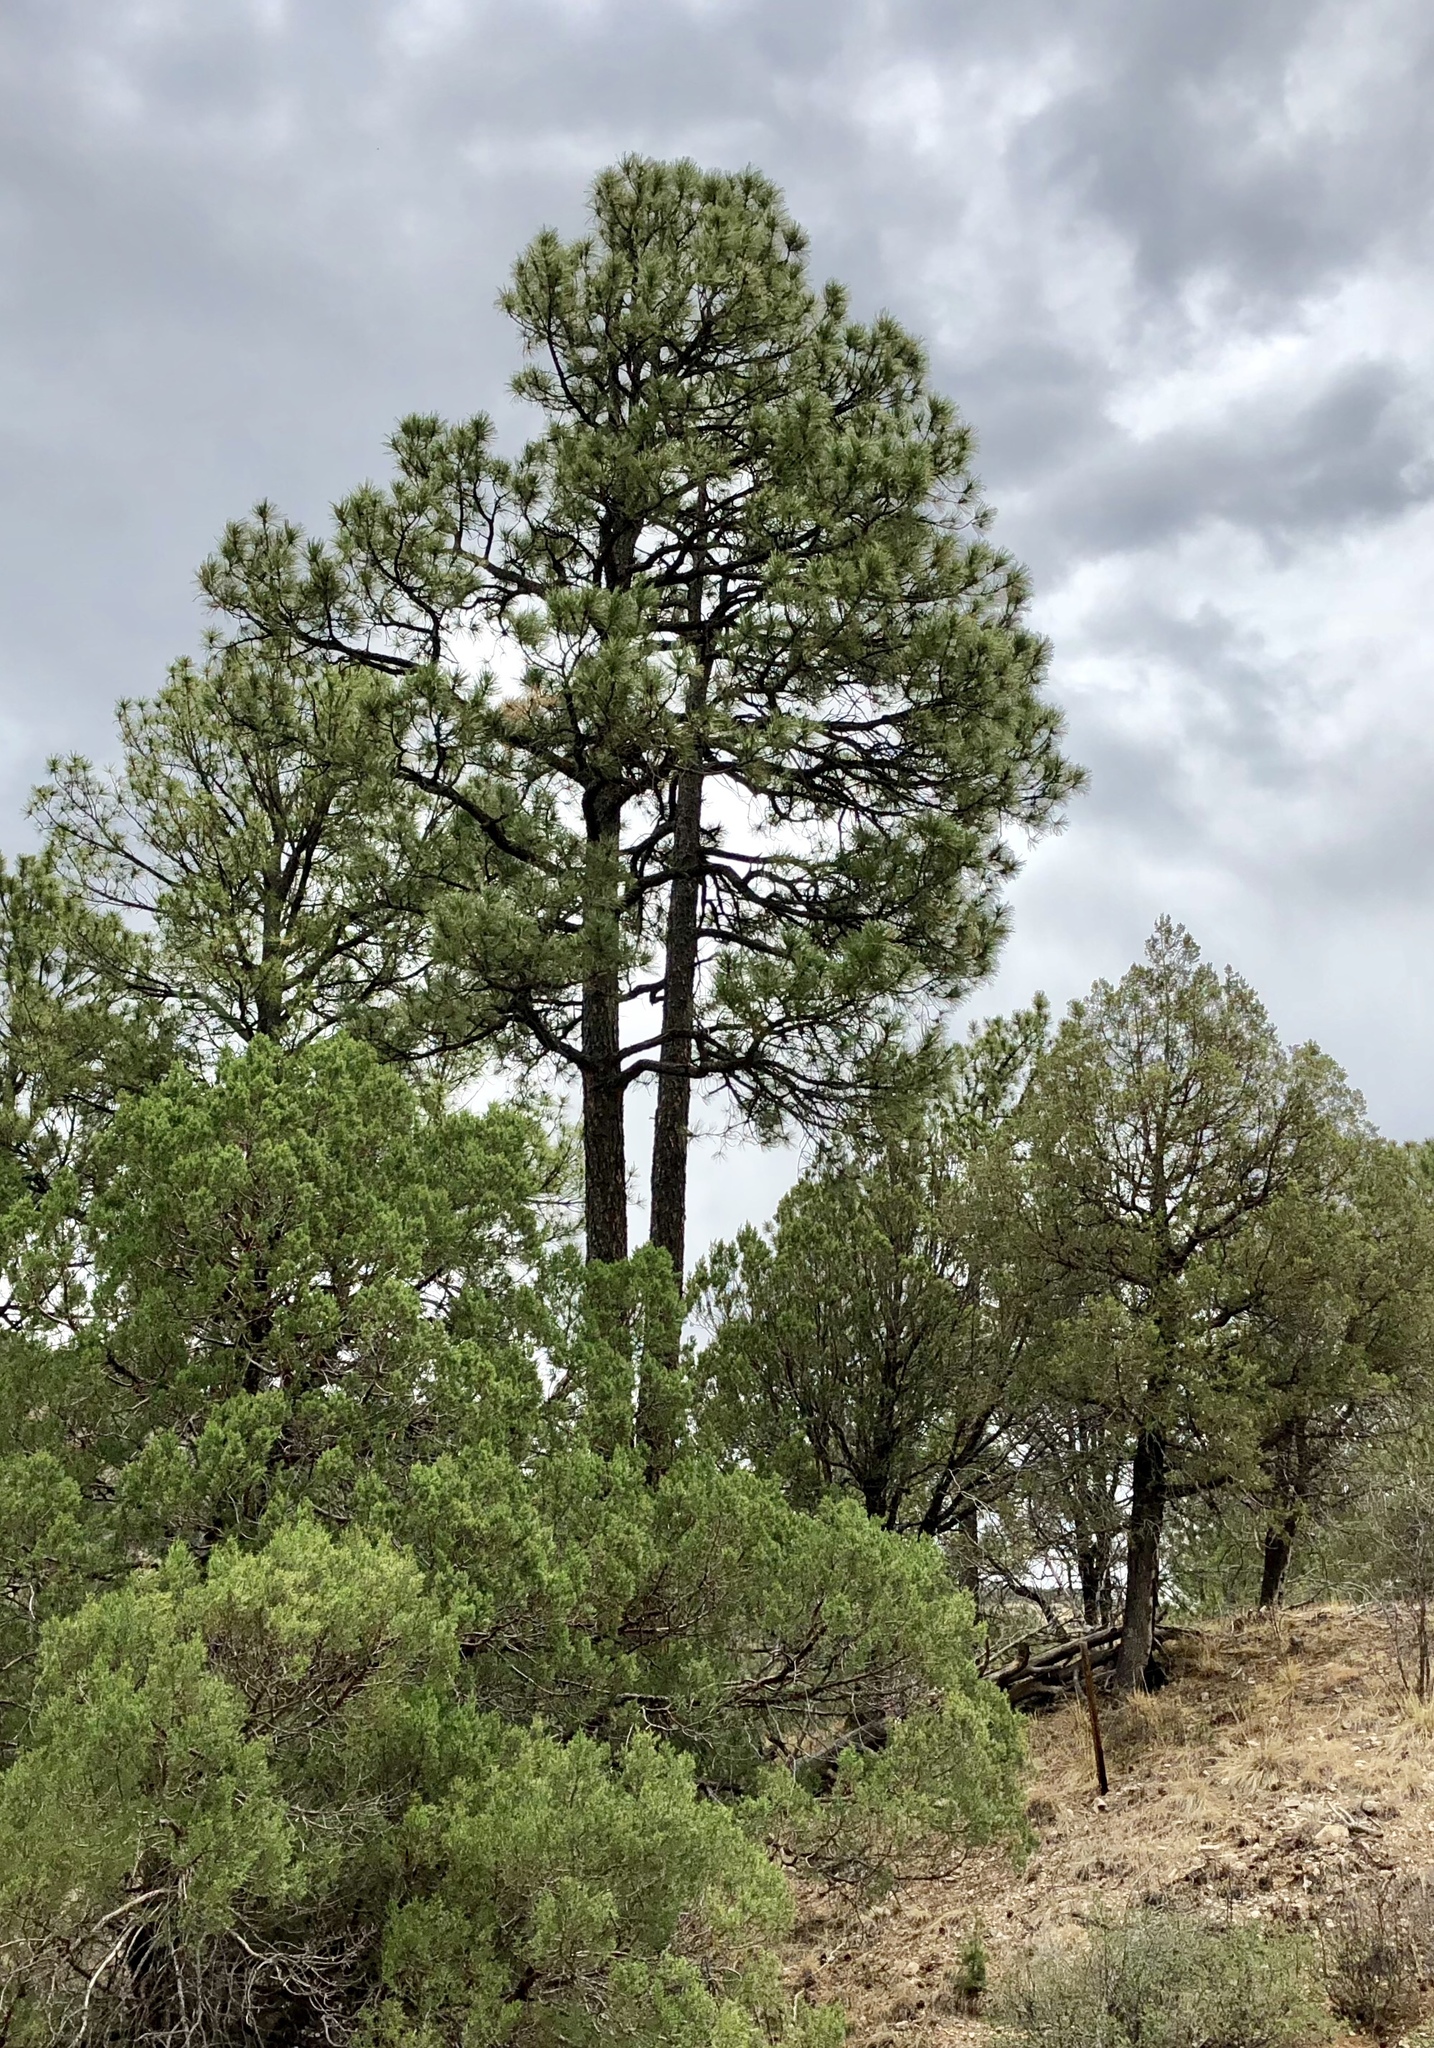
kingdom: Plantae
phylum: Tracheophyta
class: Pinopsida
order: Pinales
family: Pinaceae
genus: Pinus
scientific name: Pinus ponderosa
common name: Western yellow-pine
